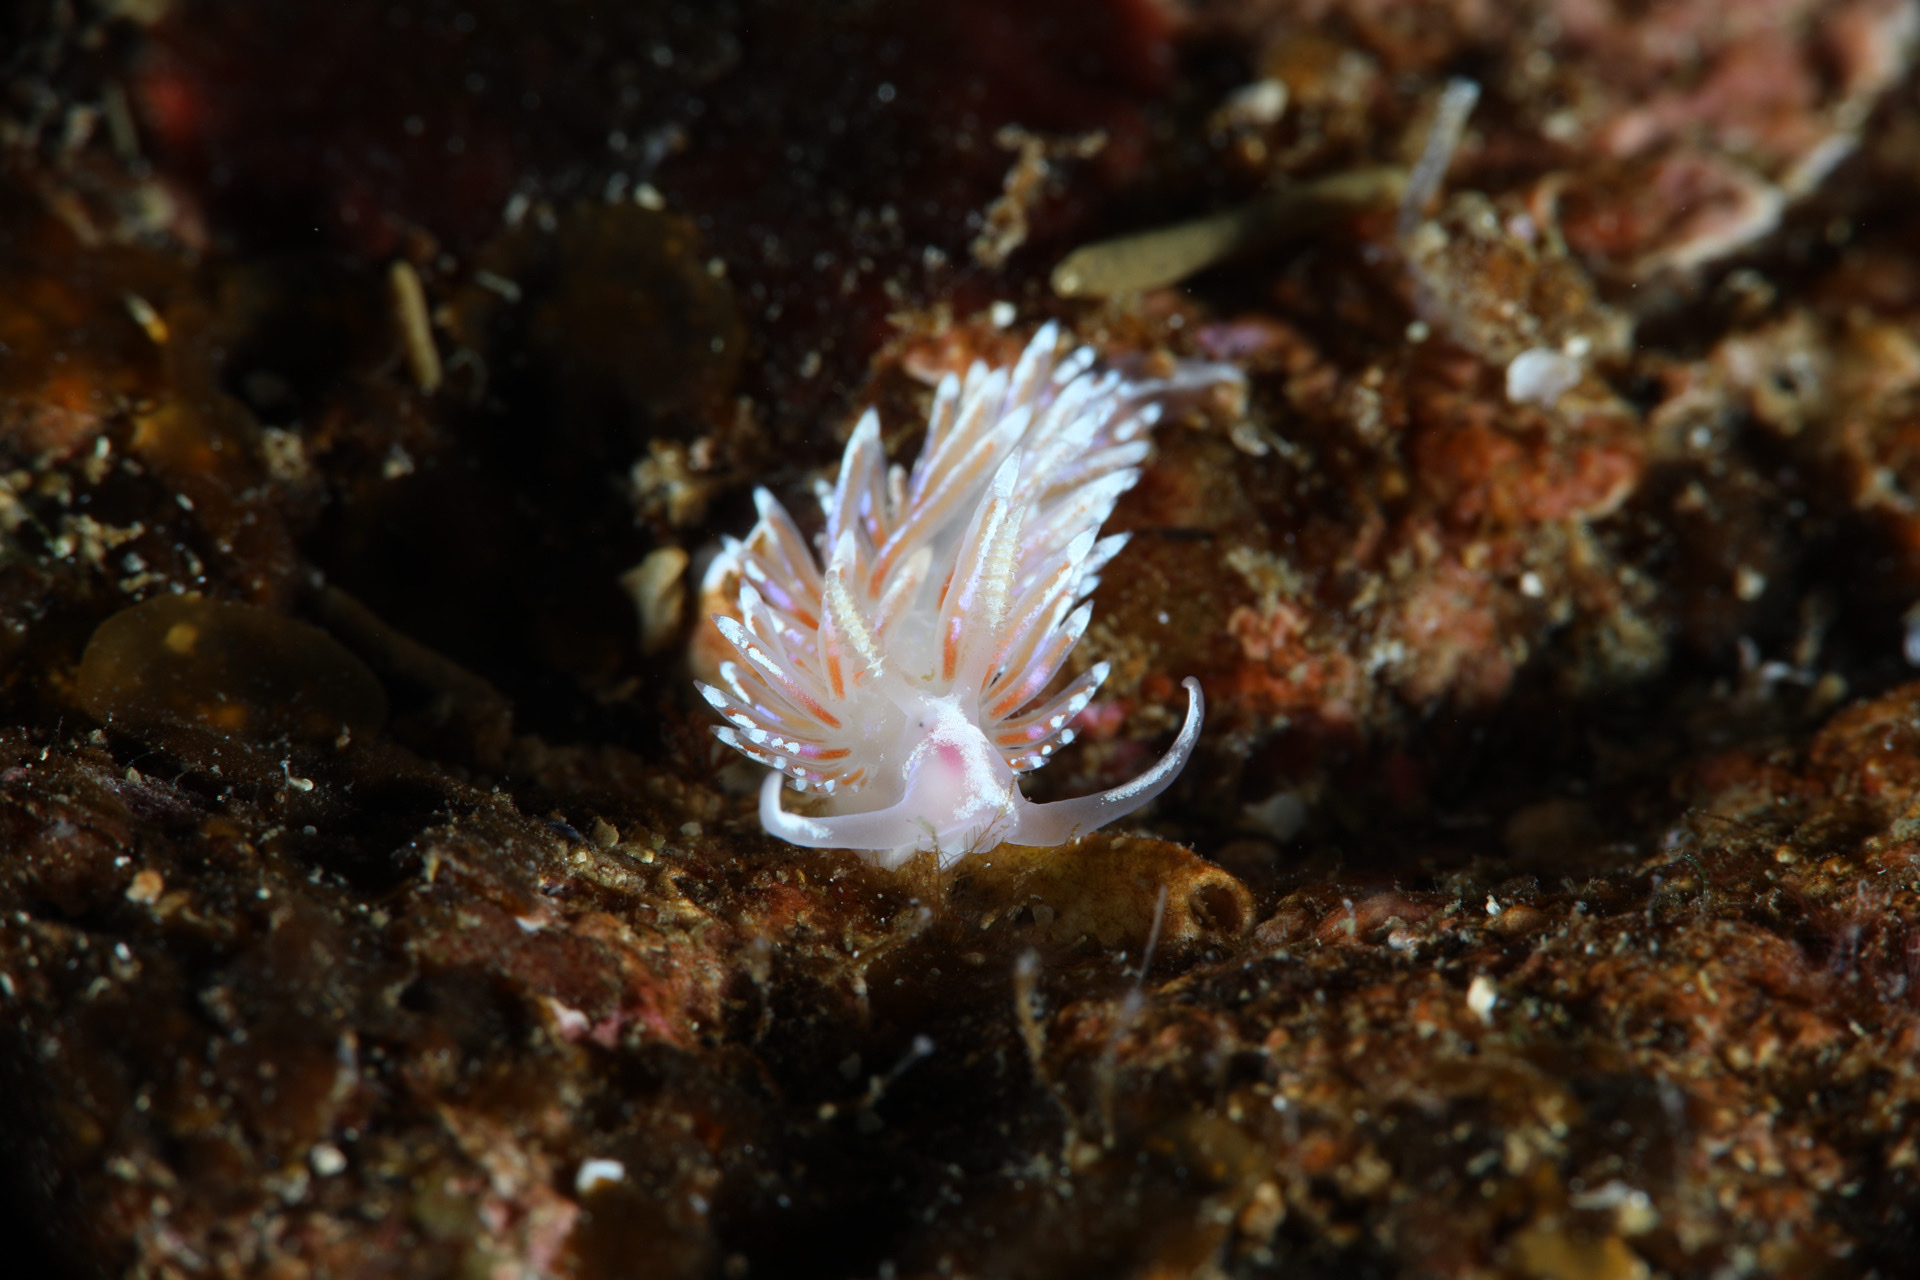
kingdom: Animalia
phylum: Mollusca
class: Gastropoda
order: Nudibranchia
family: Facelinidae
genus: Facelina
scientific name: Facelina auriculata
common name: Slender facelina
